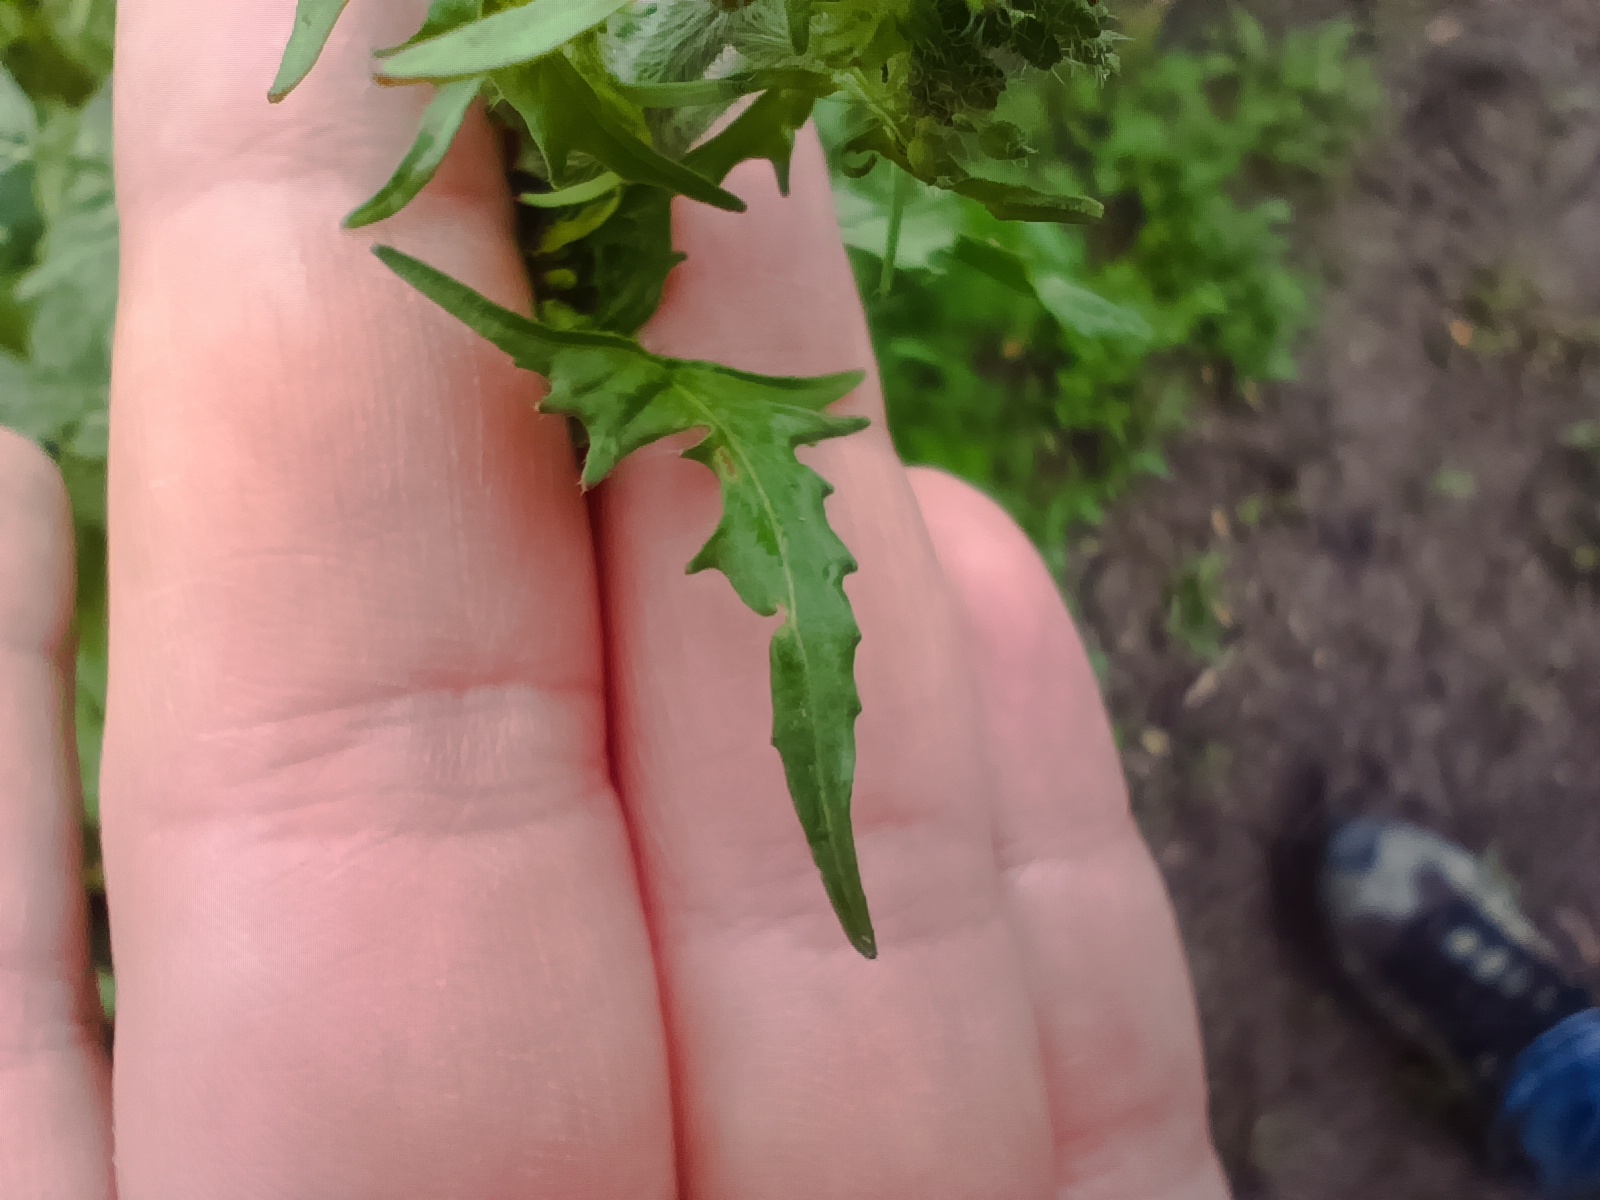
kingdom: Plantae
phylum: Tracheophyta
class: Magnoliopsida
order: Brassicales
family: Brassicaceae
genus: Sisymbrium
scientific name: Sisymbrium loeselii
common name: False london-rocket
